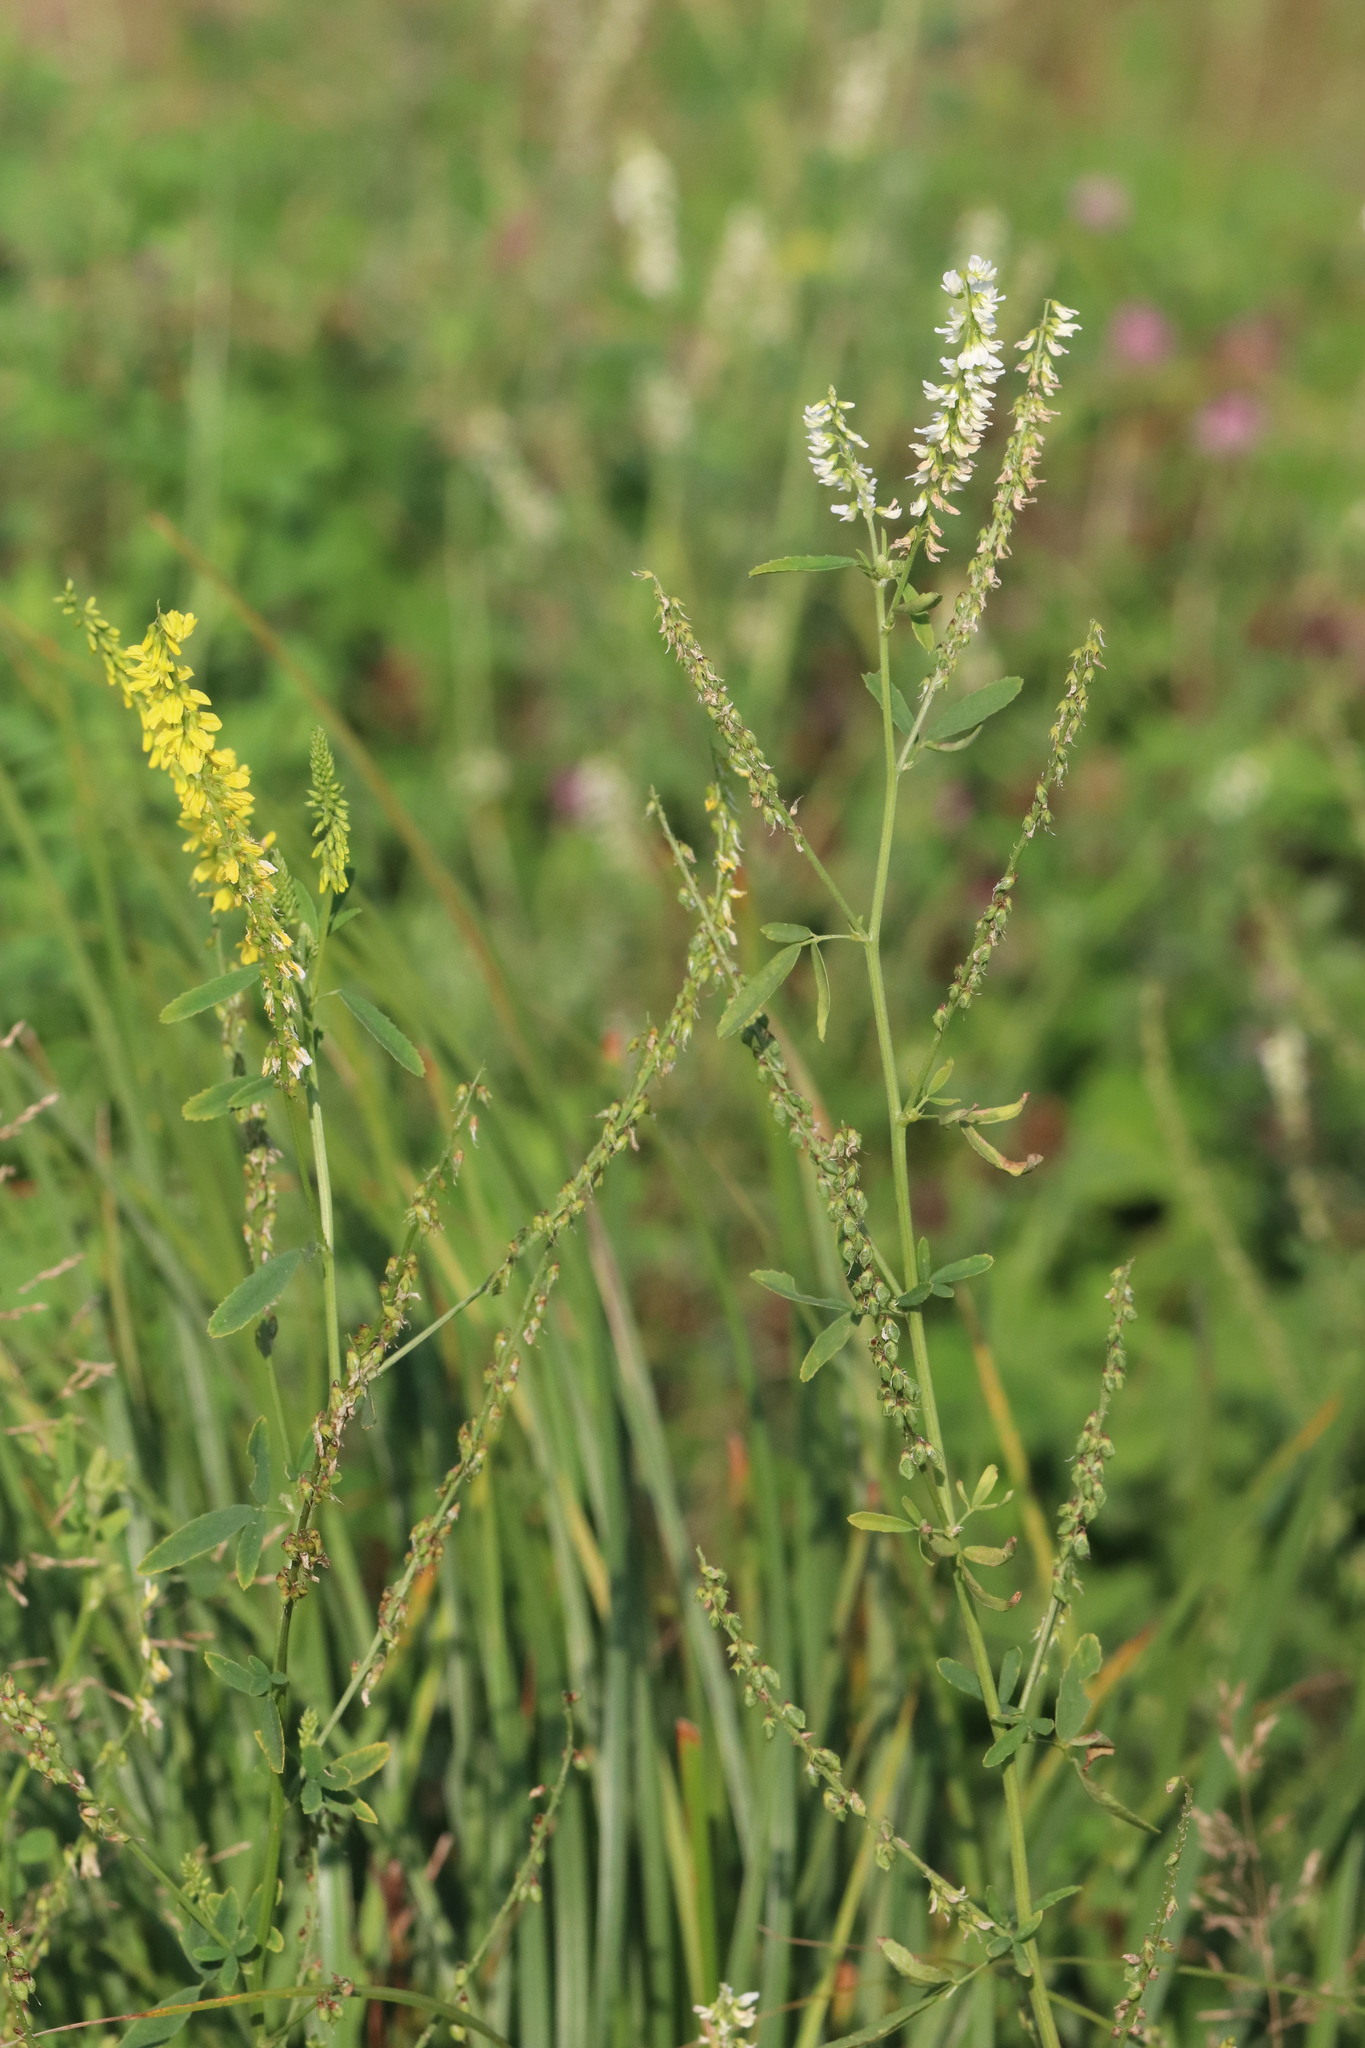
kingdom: Plantae
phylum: Tracheophyta
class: Magnoliopsida
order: Fabales
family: Fabaceae
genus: Melilotus
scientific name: Melilotus officinalis
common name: Sweetclover
